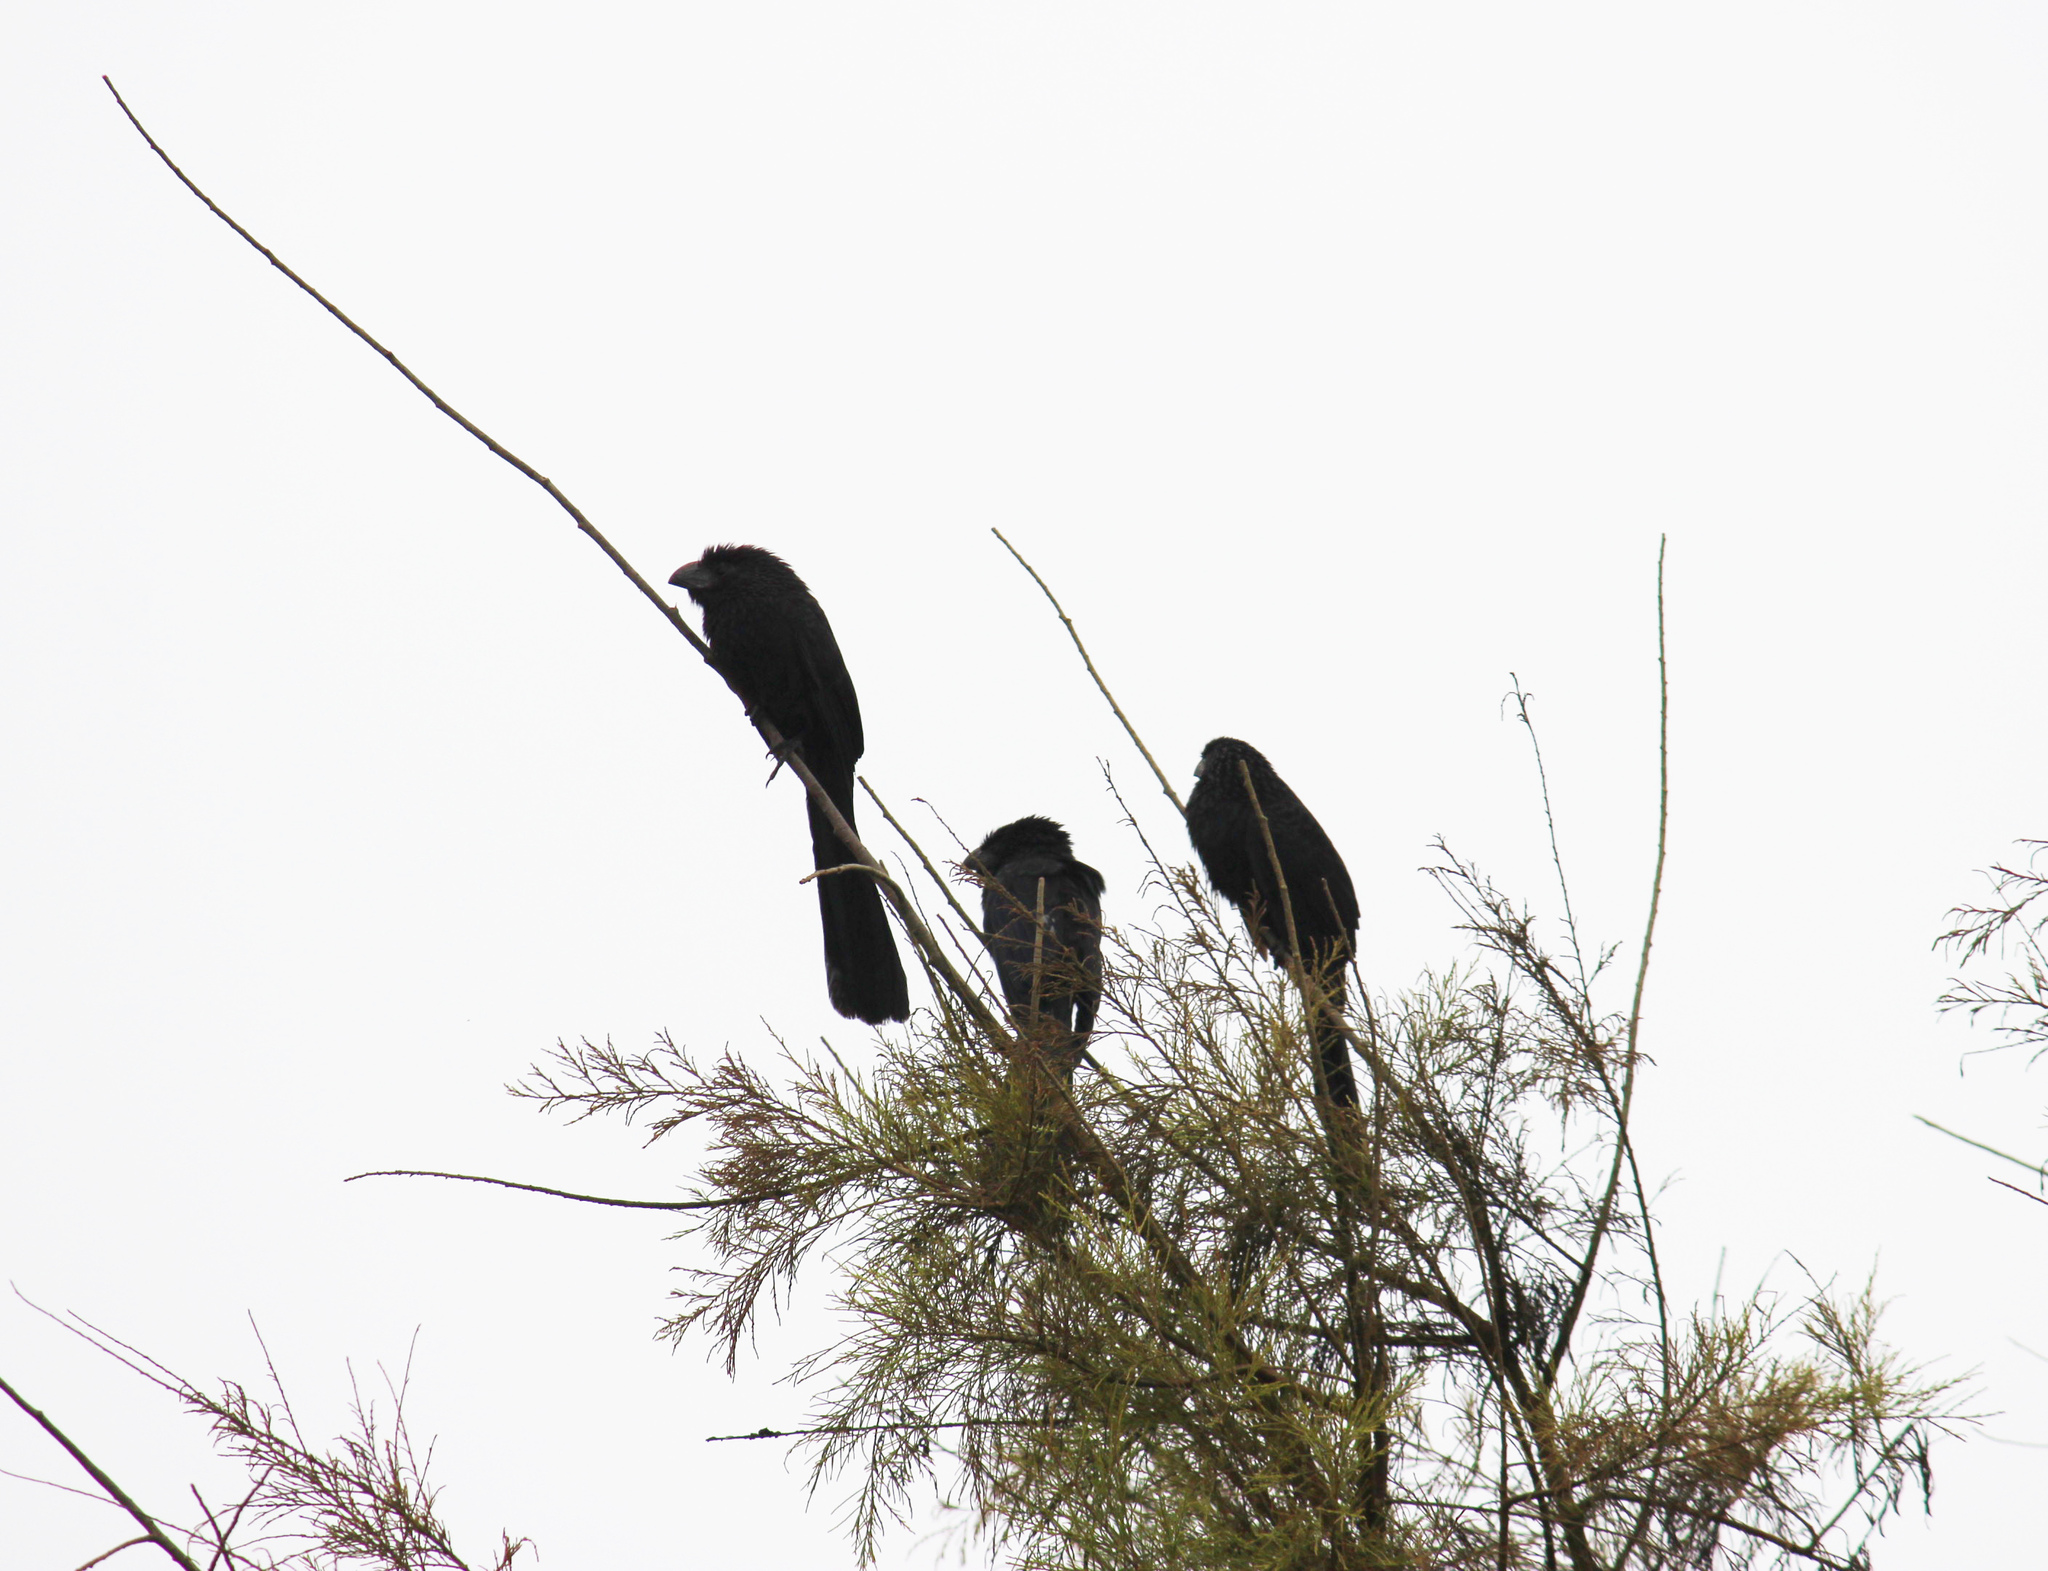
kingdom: Animalia
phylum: Chordata
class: Aves
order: Cuculiformes
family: Cuculidae
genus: Crotophaga
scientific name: Crotophaga sulcirostris
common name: Groove-billed ani
